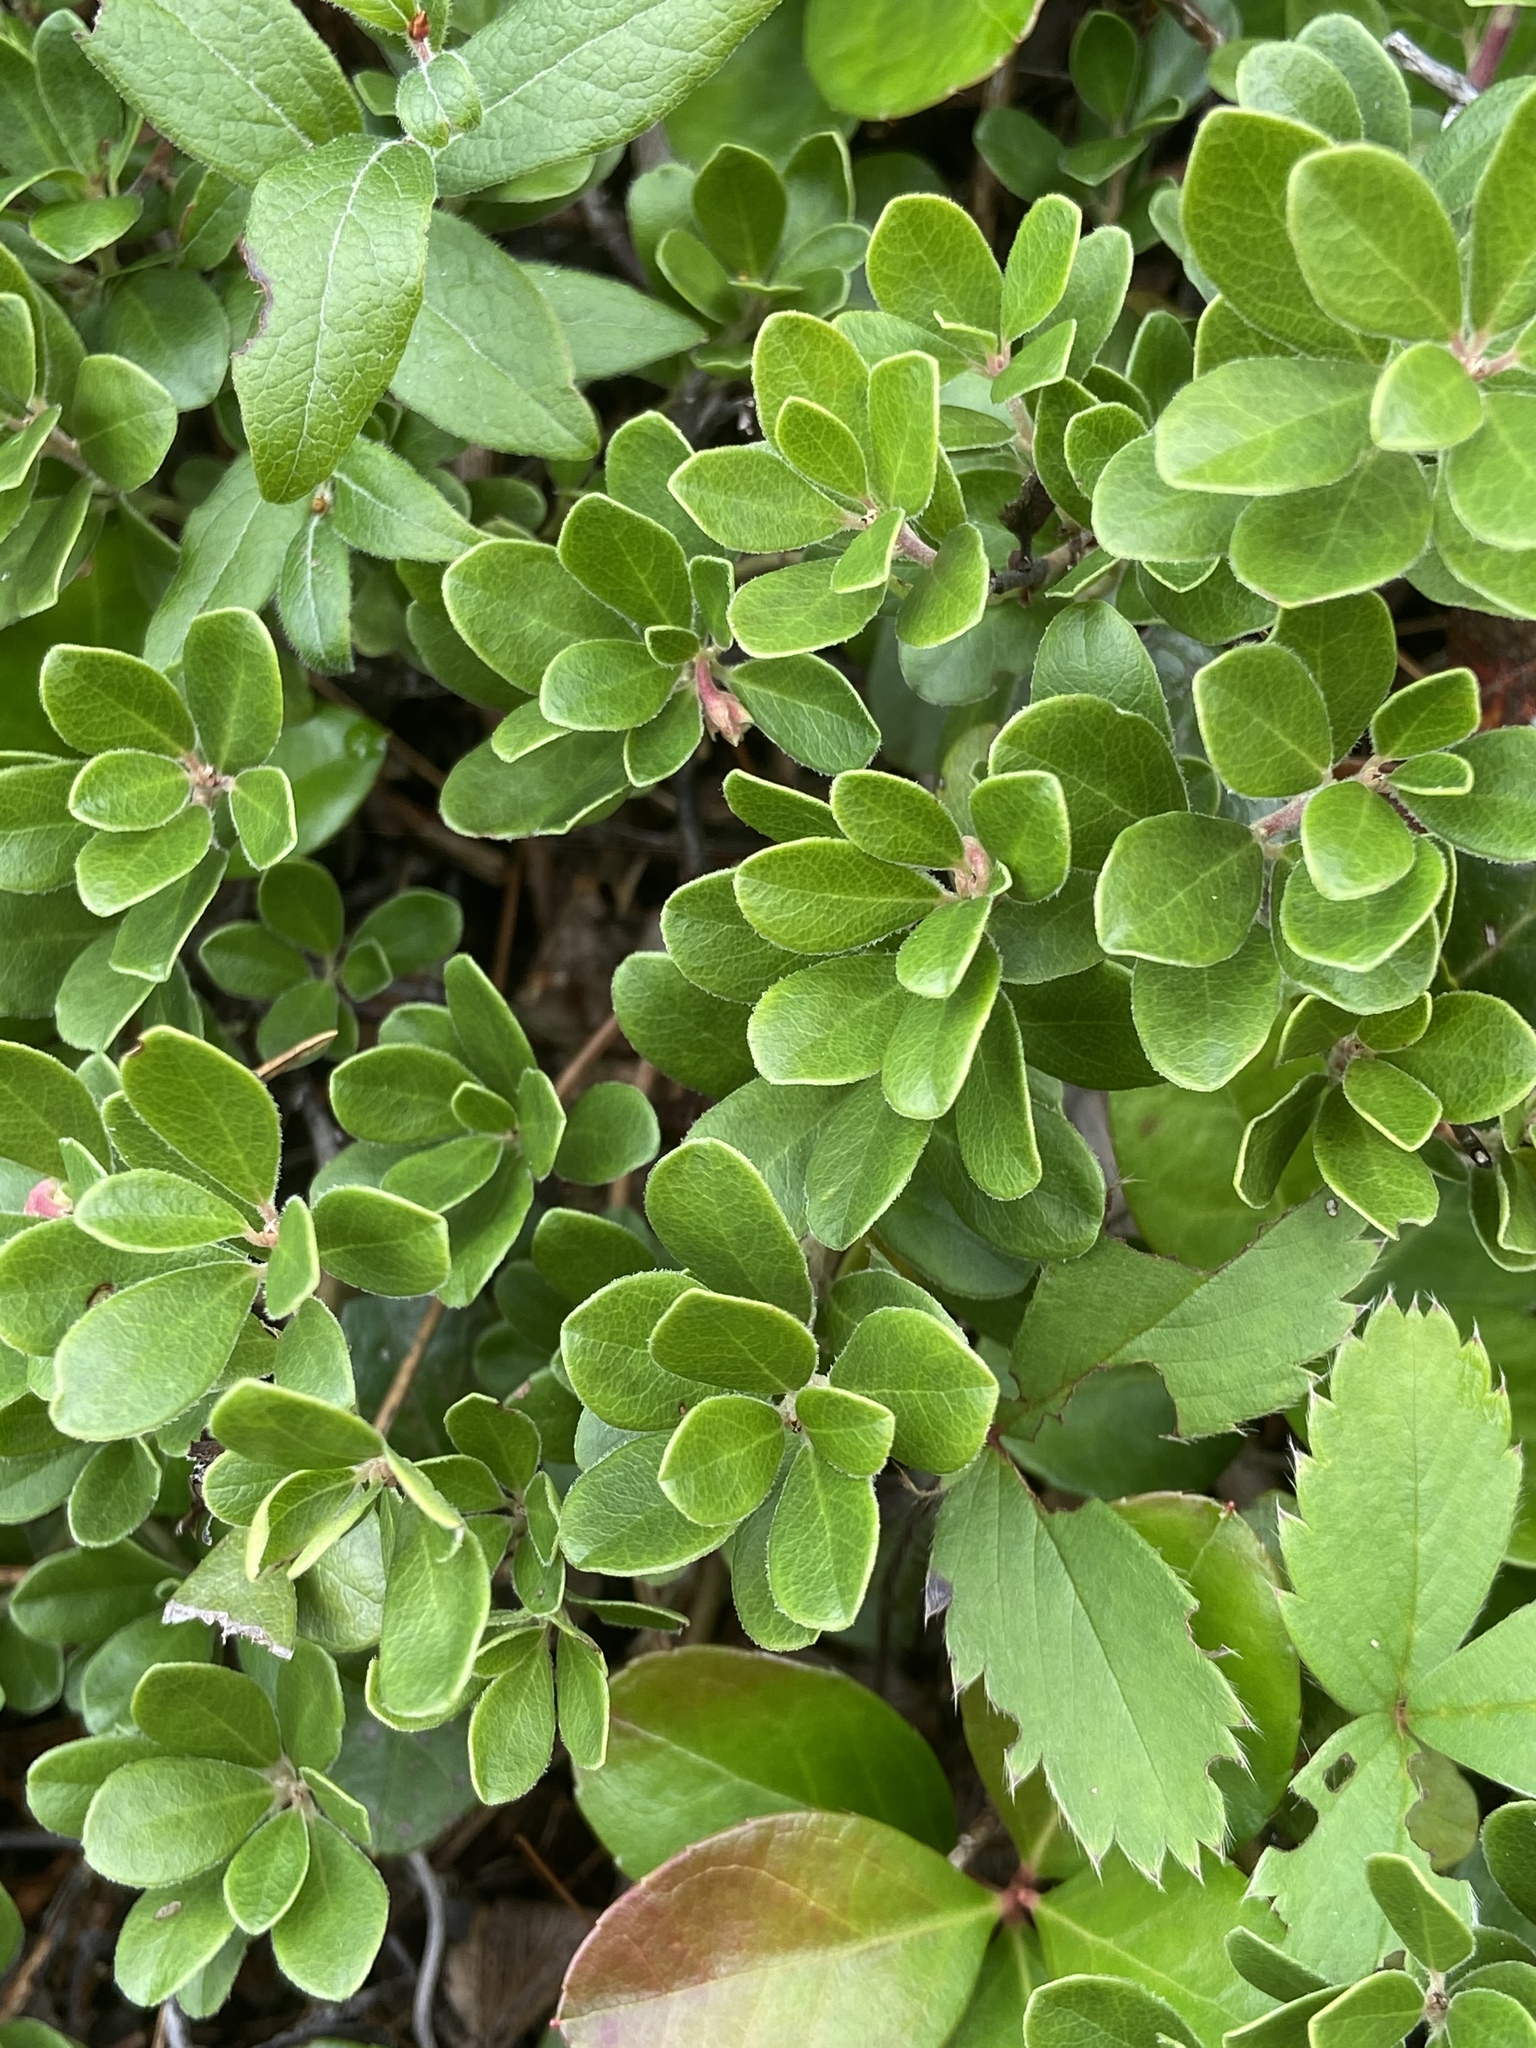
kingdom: Plantae
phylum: Tracheophyta
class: Magnoliopsida
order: Ericales
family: Ericaceae
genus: Arctostaphylos
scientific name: Arctostaphylos uva-ursi
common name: Bearberry
